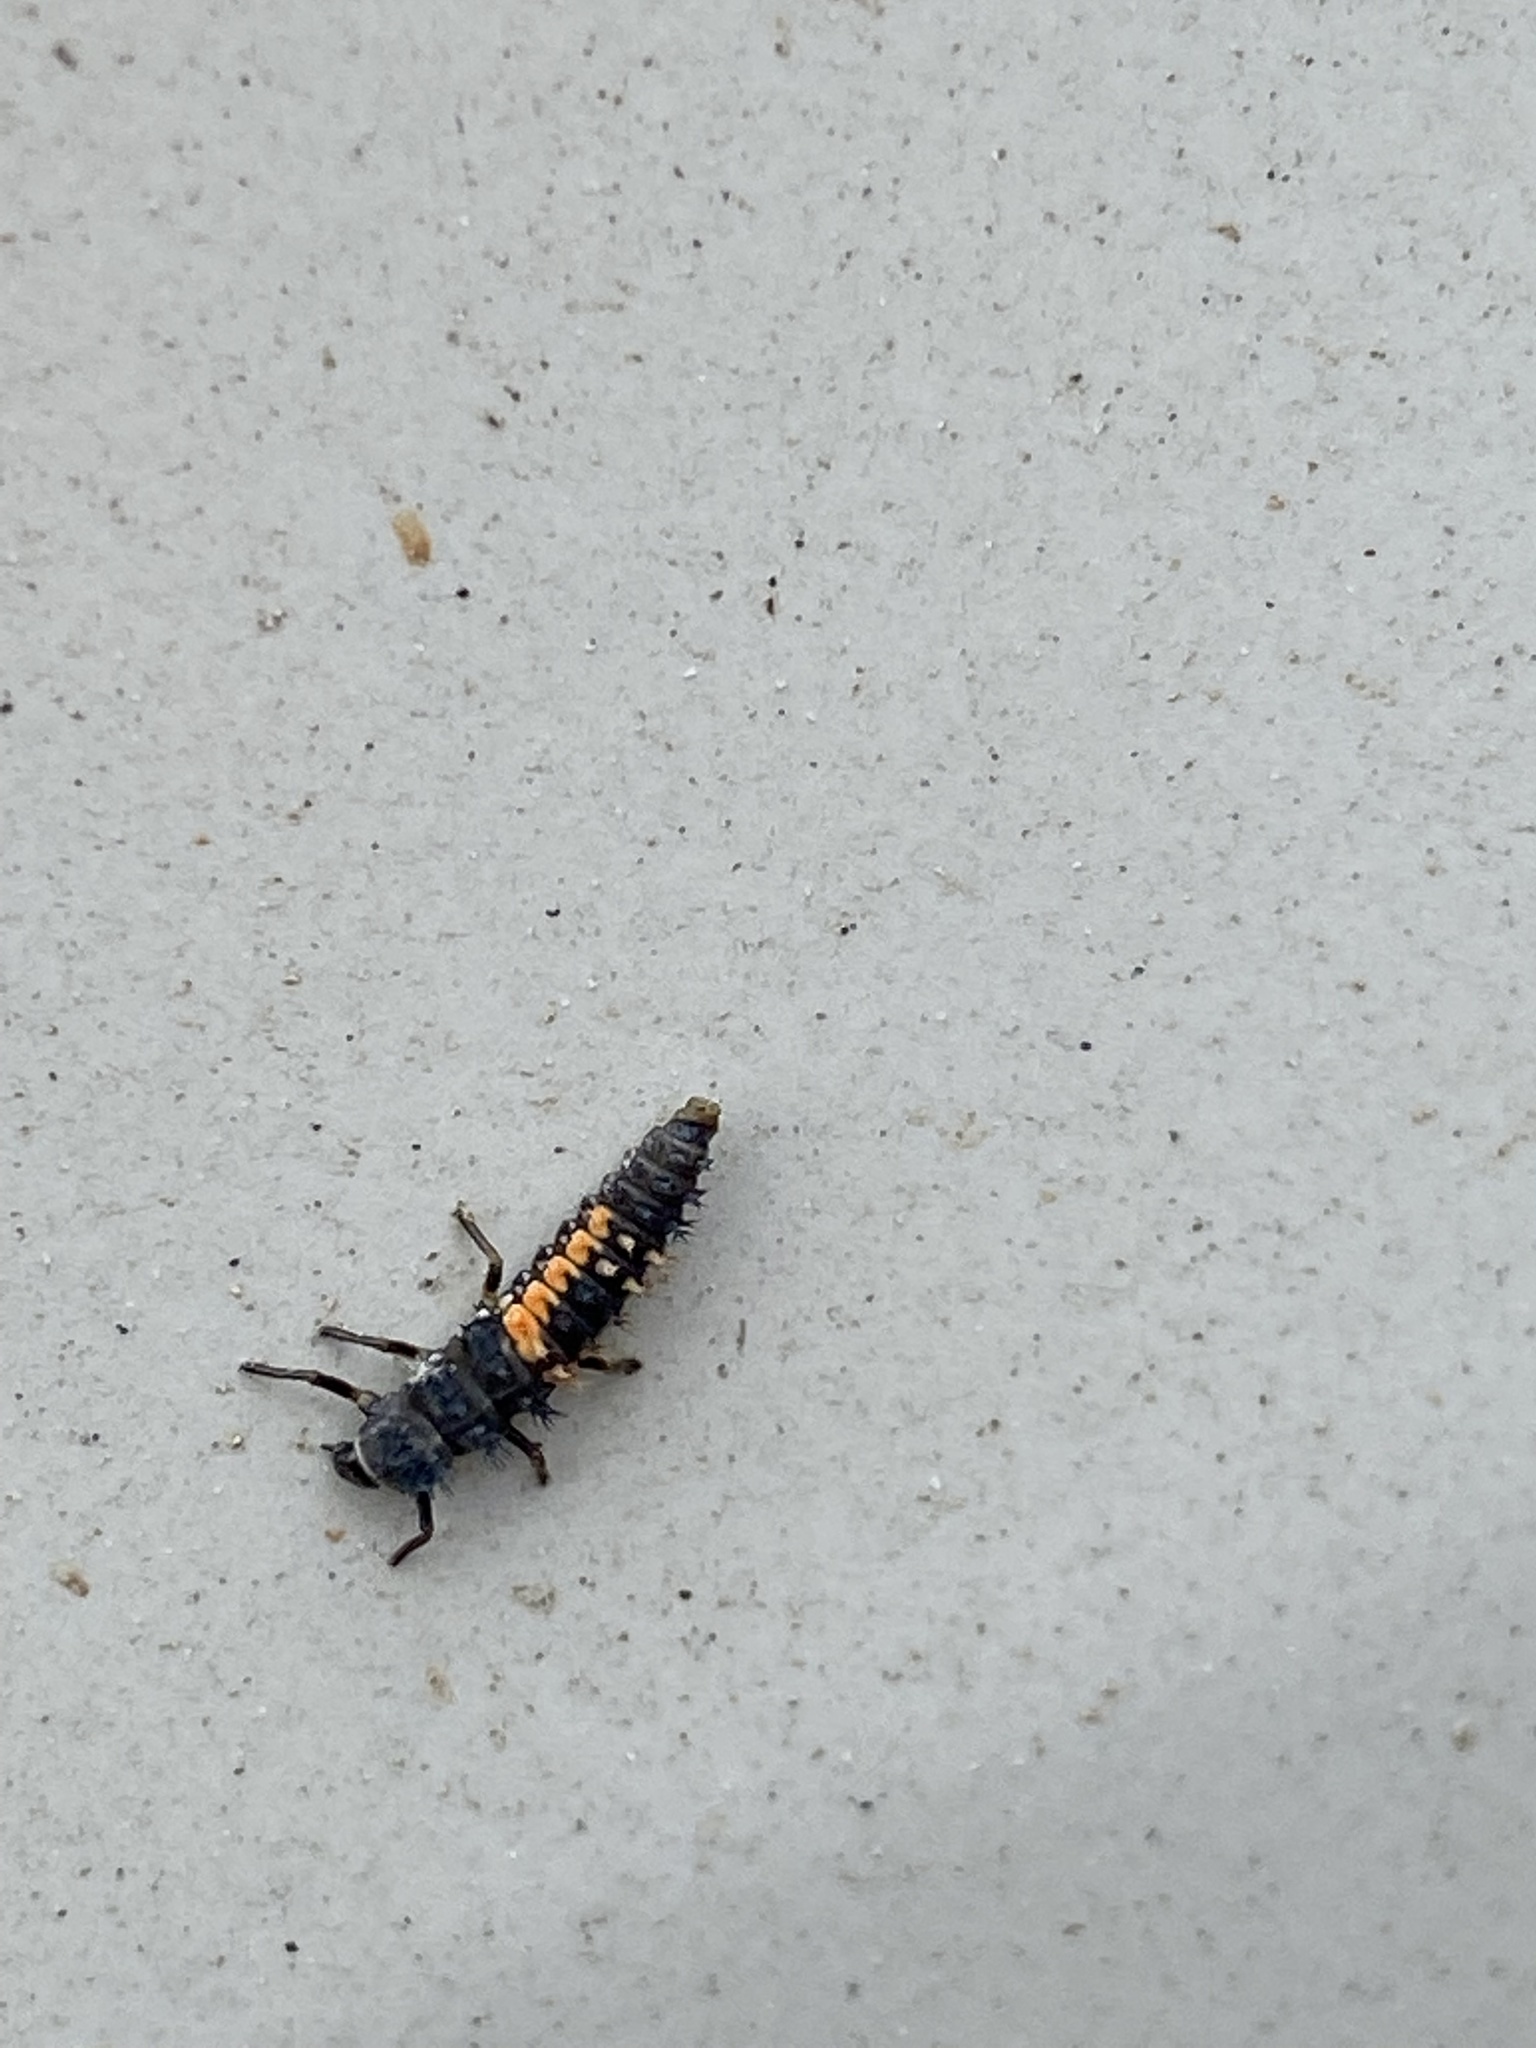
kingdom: Animalia
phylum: Arthropoda
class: Insecta
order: Coleoptera
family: Coccinellidae
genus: Harmonia
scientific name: Harmonia axyridis
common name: Harlequin ladybird
